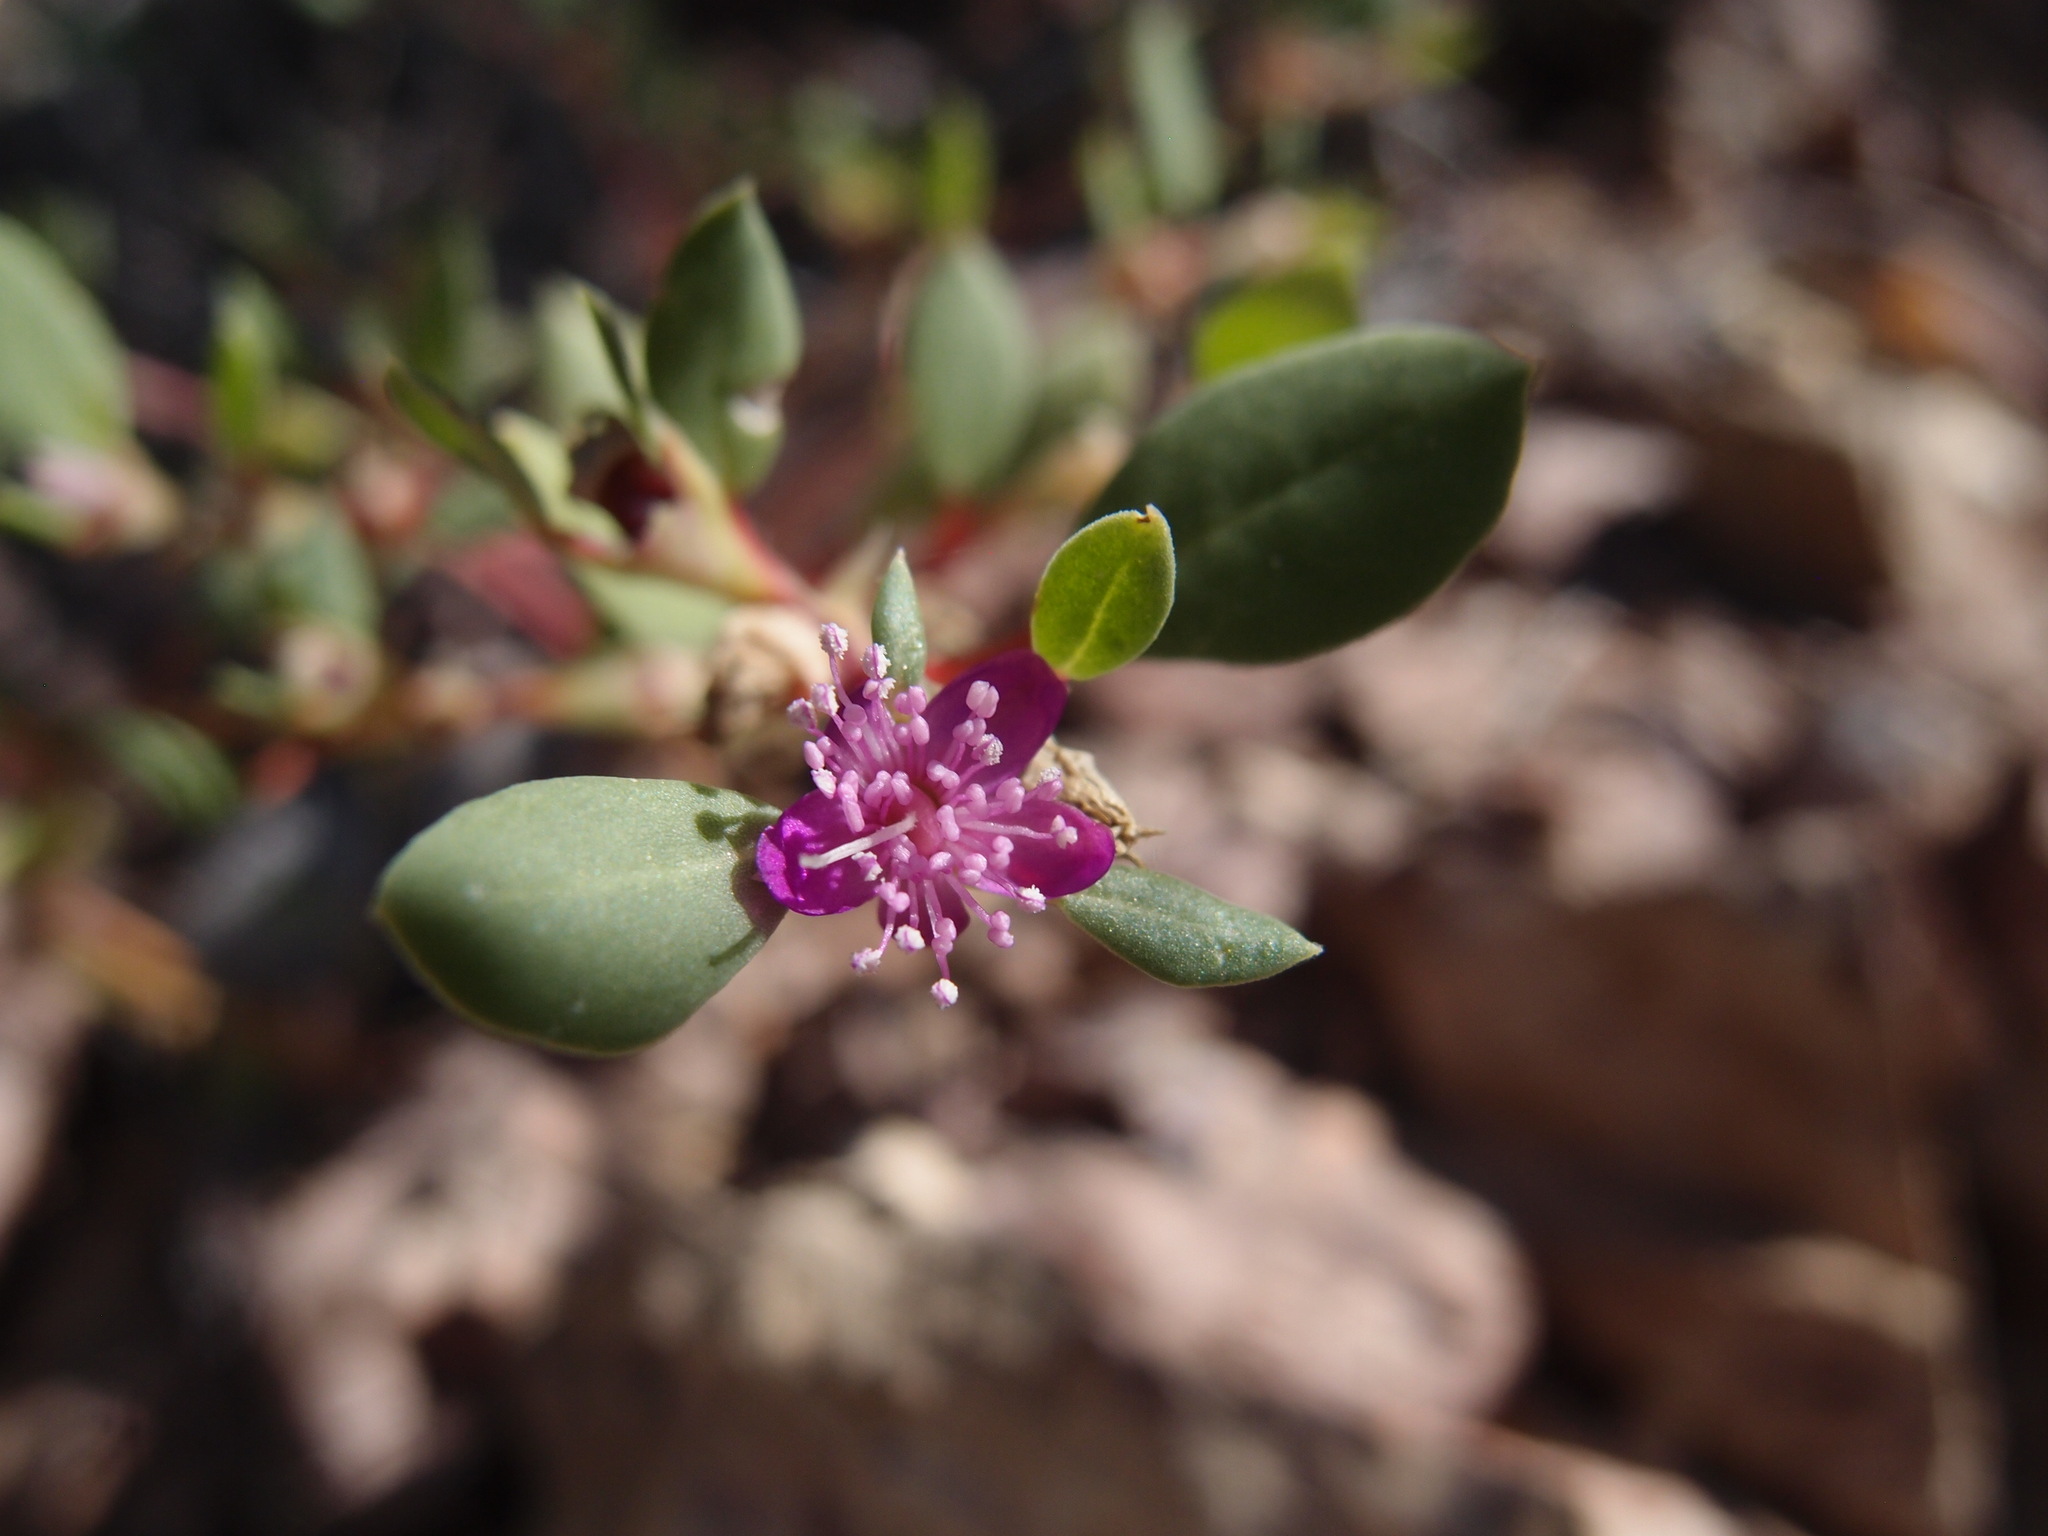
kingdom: Plantae
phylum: Tracheophyta
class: Magnoliopsida
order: Caryophyllales
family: Aizoaceae
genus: Trianthema
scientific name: Trianthema portulacastrum
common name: Desert horsepurslane
